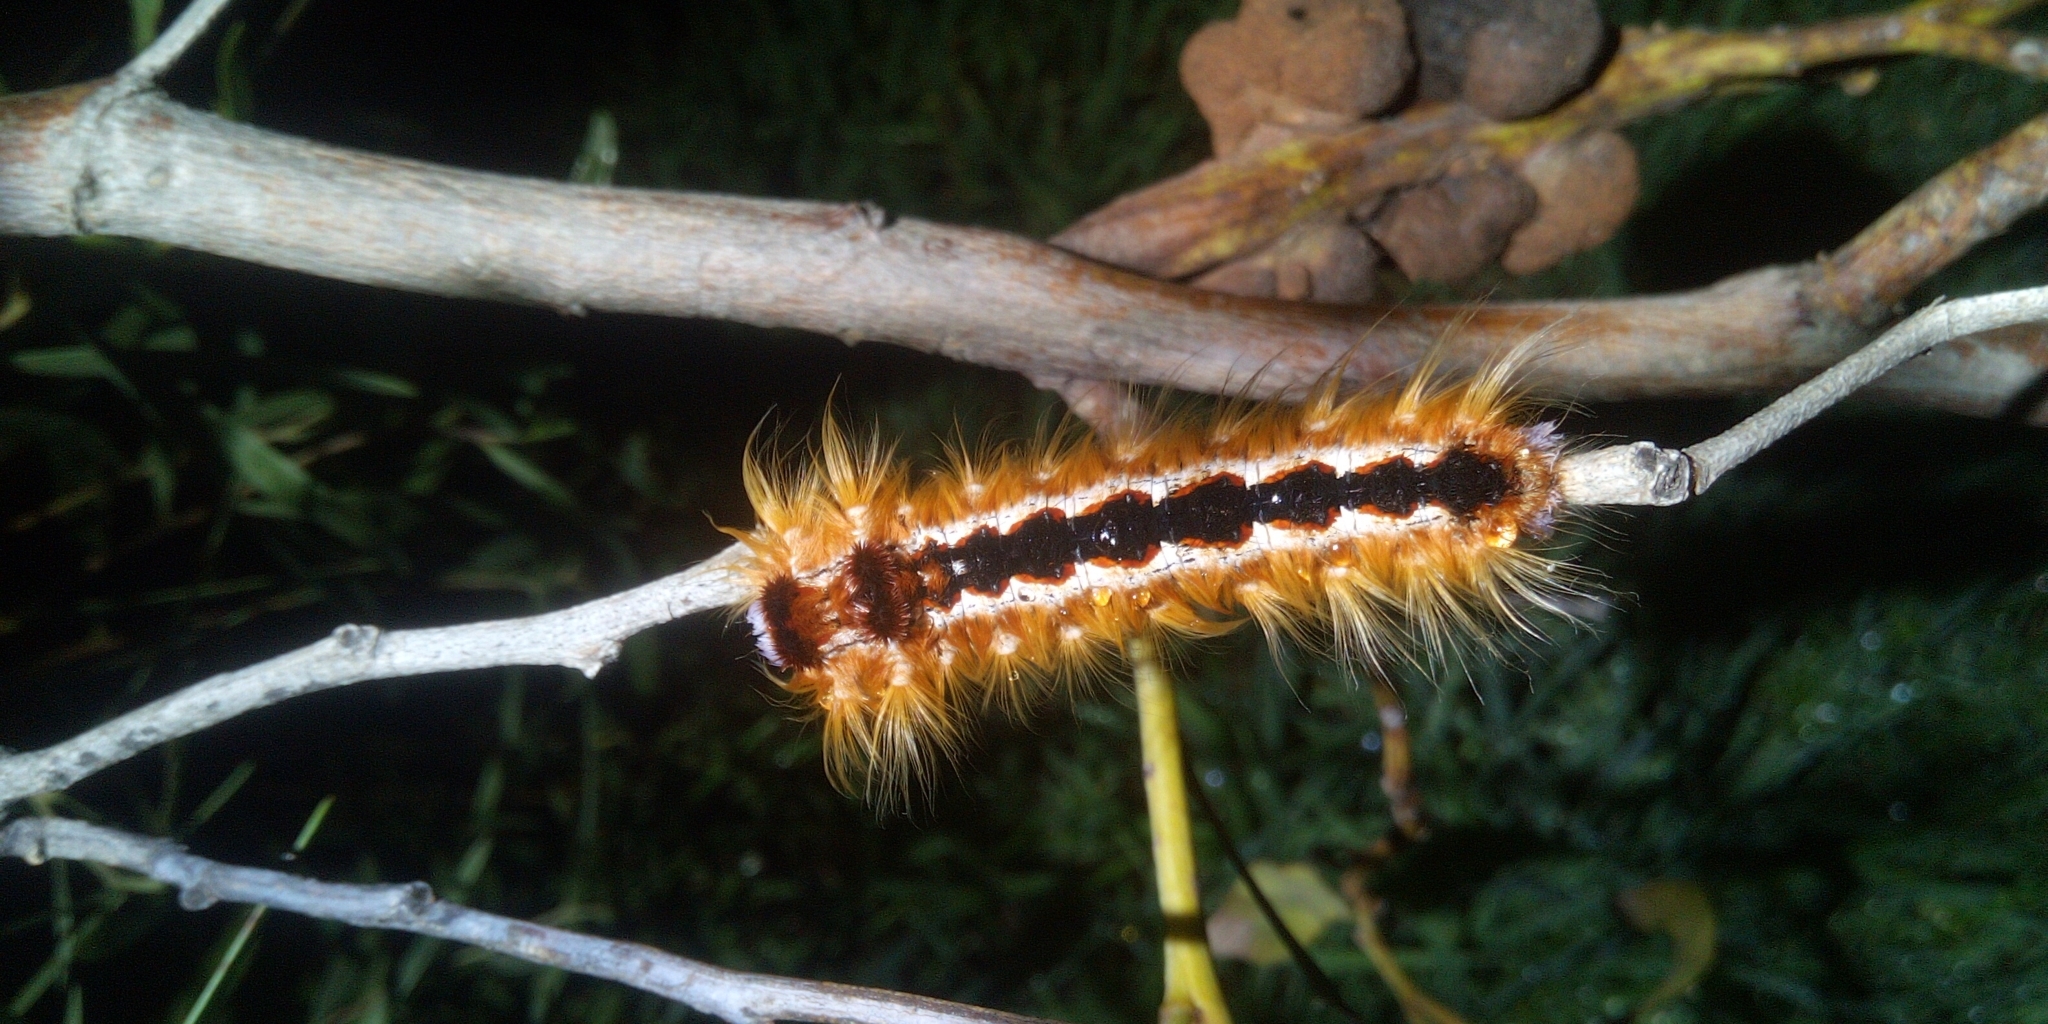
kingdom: Animalia
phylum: Arthropoda
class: Insecta
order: Lepidoptera
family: Lasiocampidae
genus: Eutricha
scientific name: Eutricha capensis
